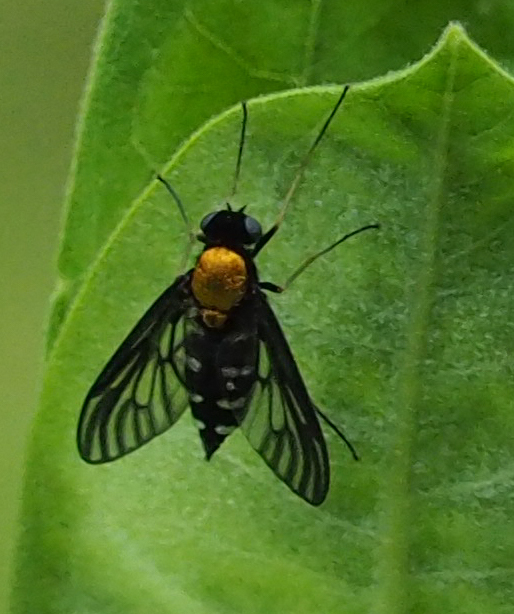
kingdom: Animalia
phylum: Arthropoda
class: Insecta
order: Diptera
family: Rhagionidae
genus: Chrysopilus
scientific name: Chrysopilus thoracicus
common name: Golden-backed snipe fly
